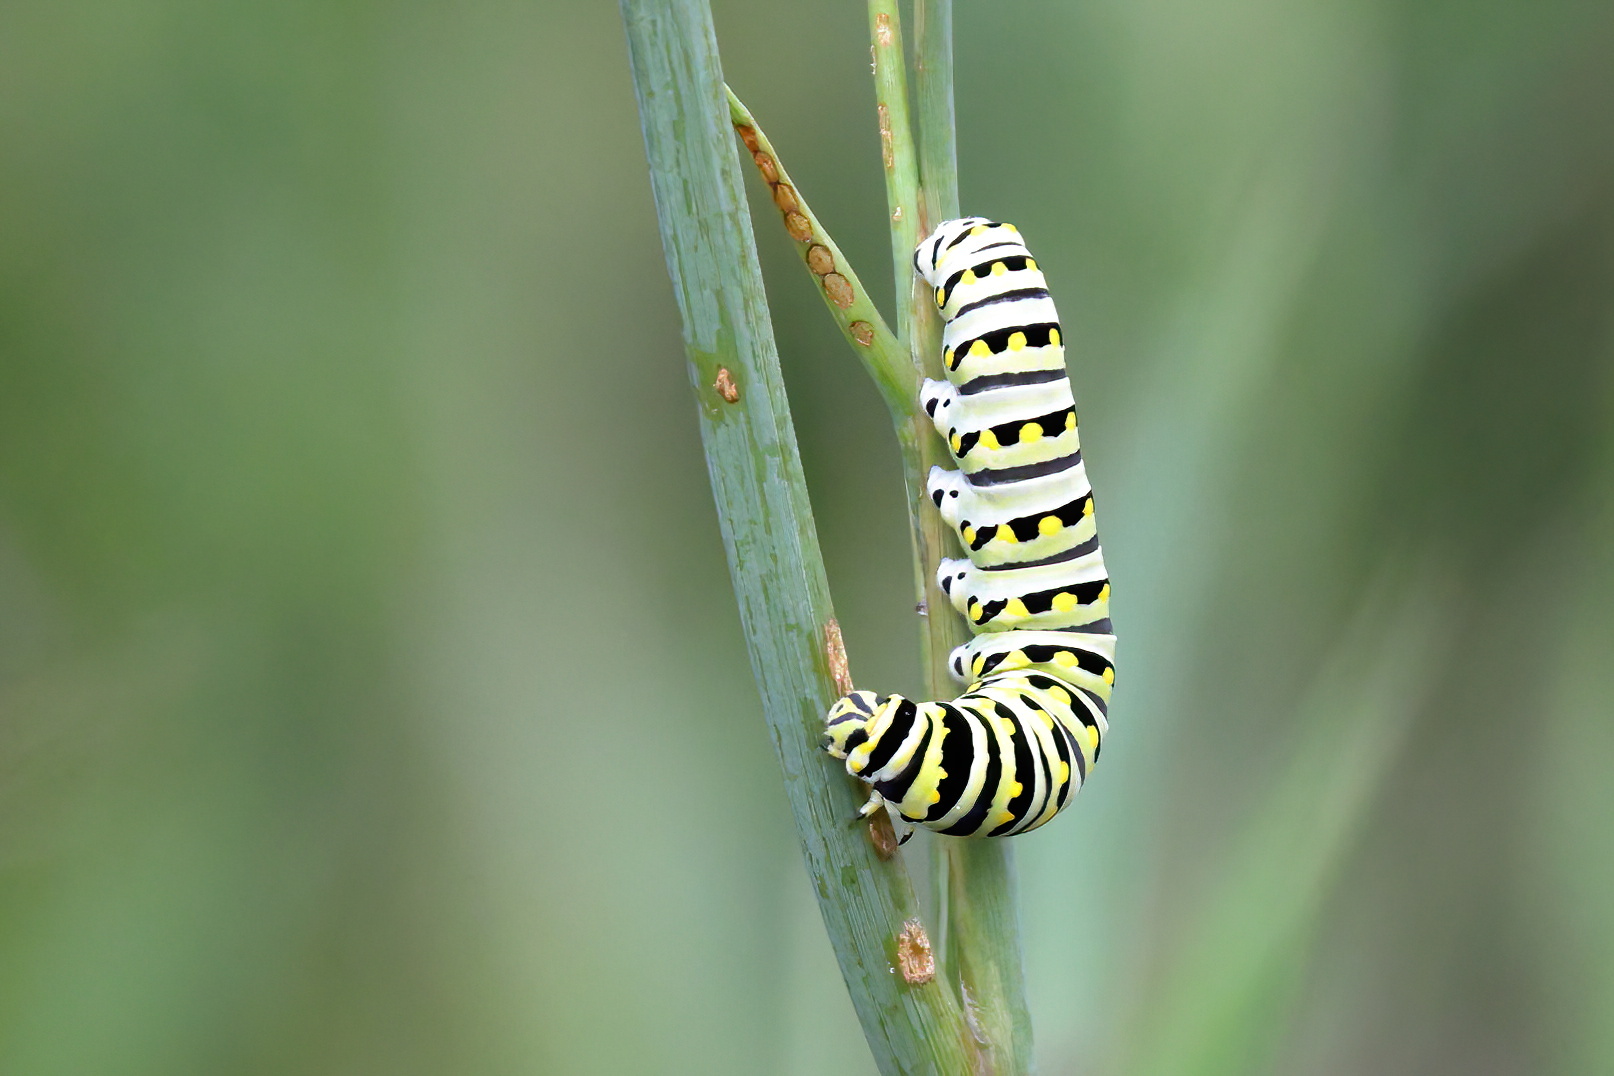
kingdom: Animalia
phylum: Arthropoda
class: Insecta
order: Lepidoptera
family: Papilionidae
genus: Papilio
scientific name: Papilio polyxenes
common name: Black swallowtail
